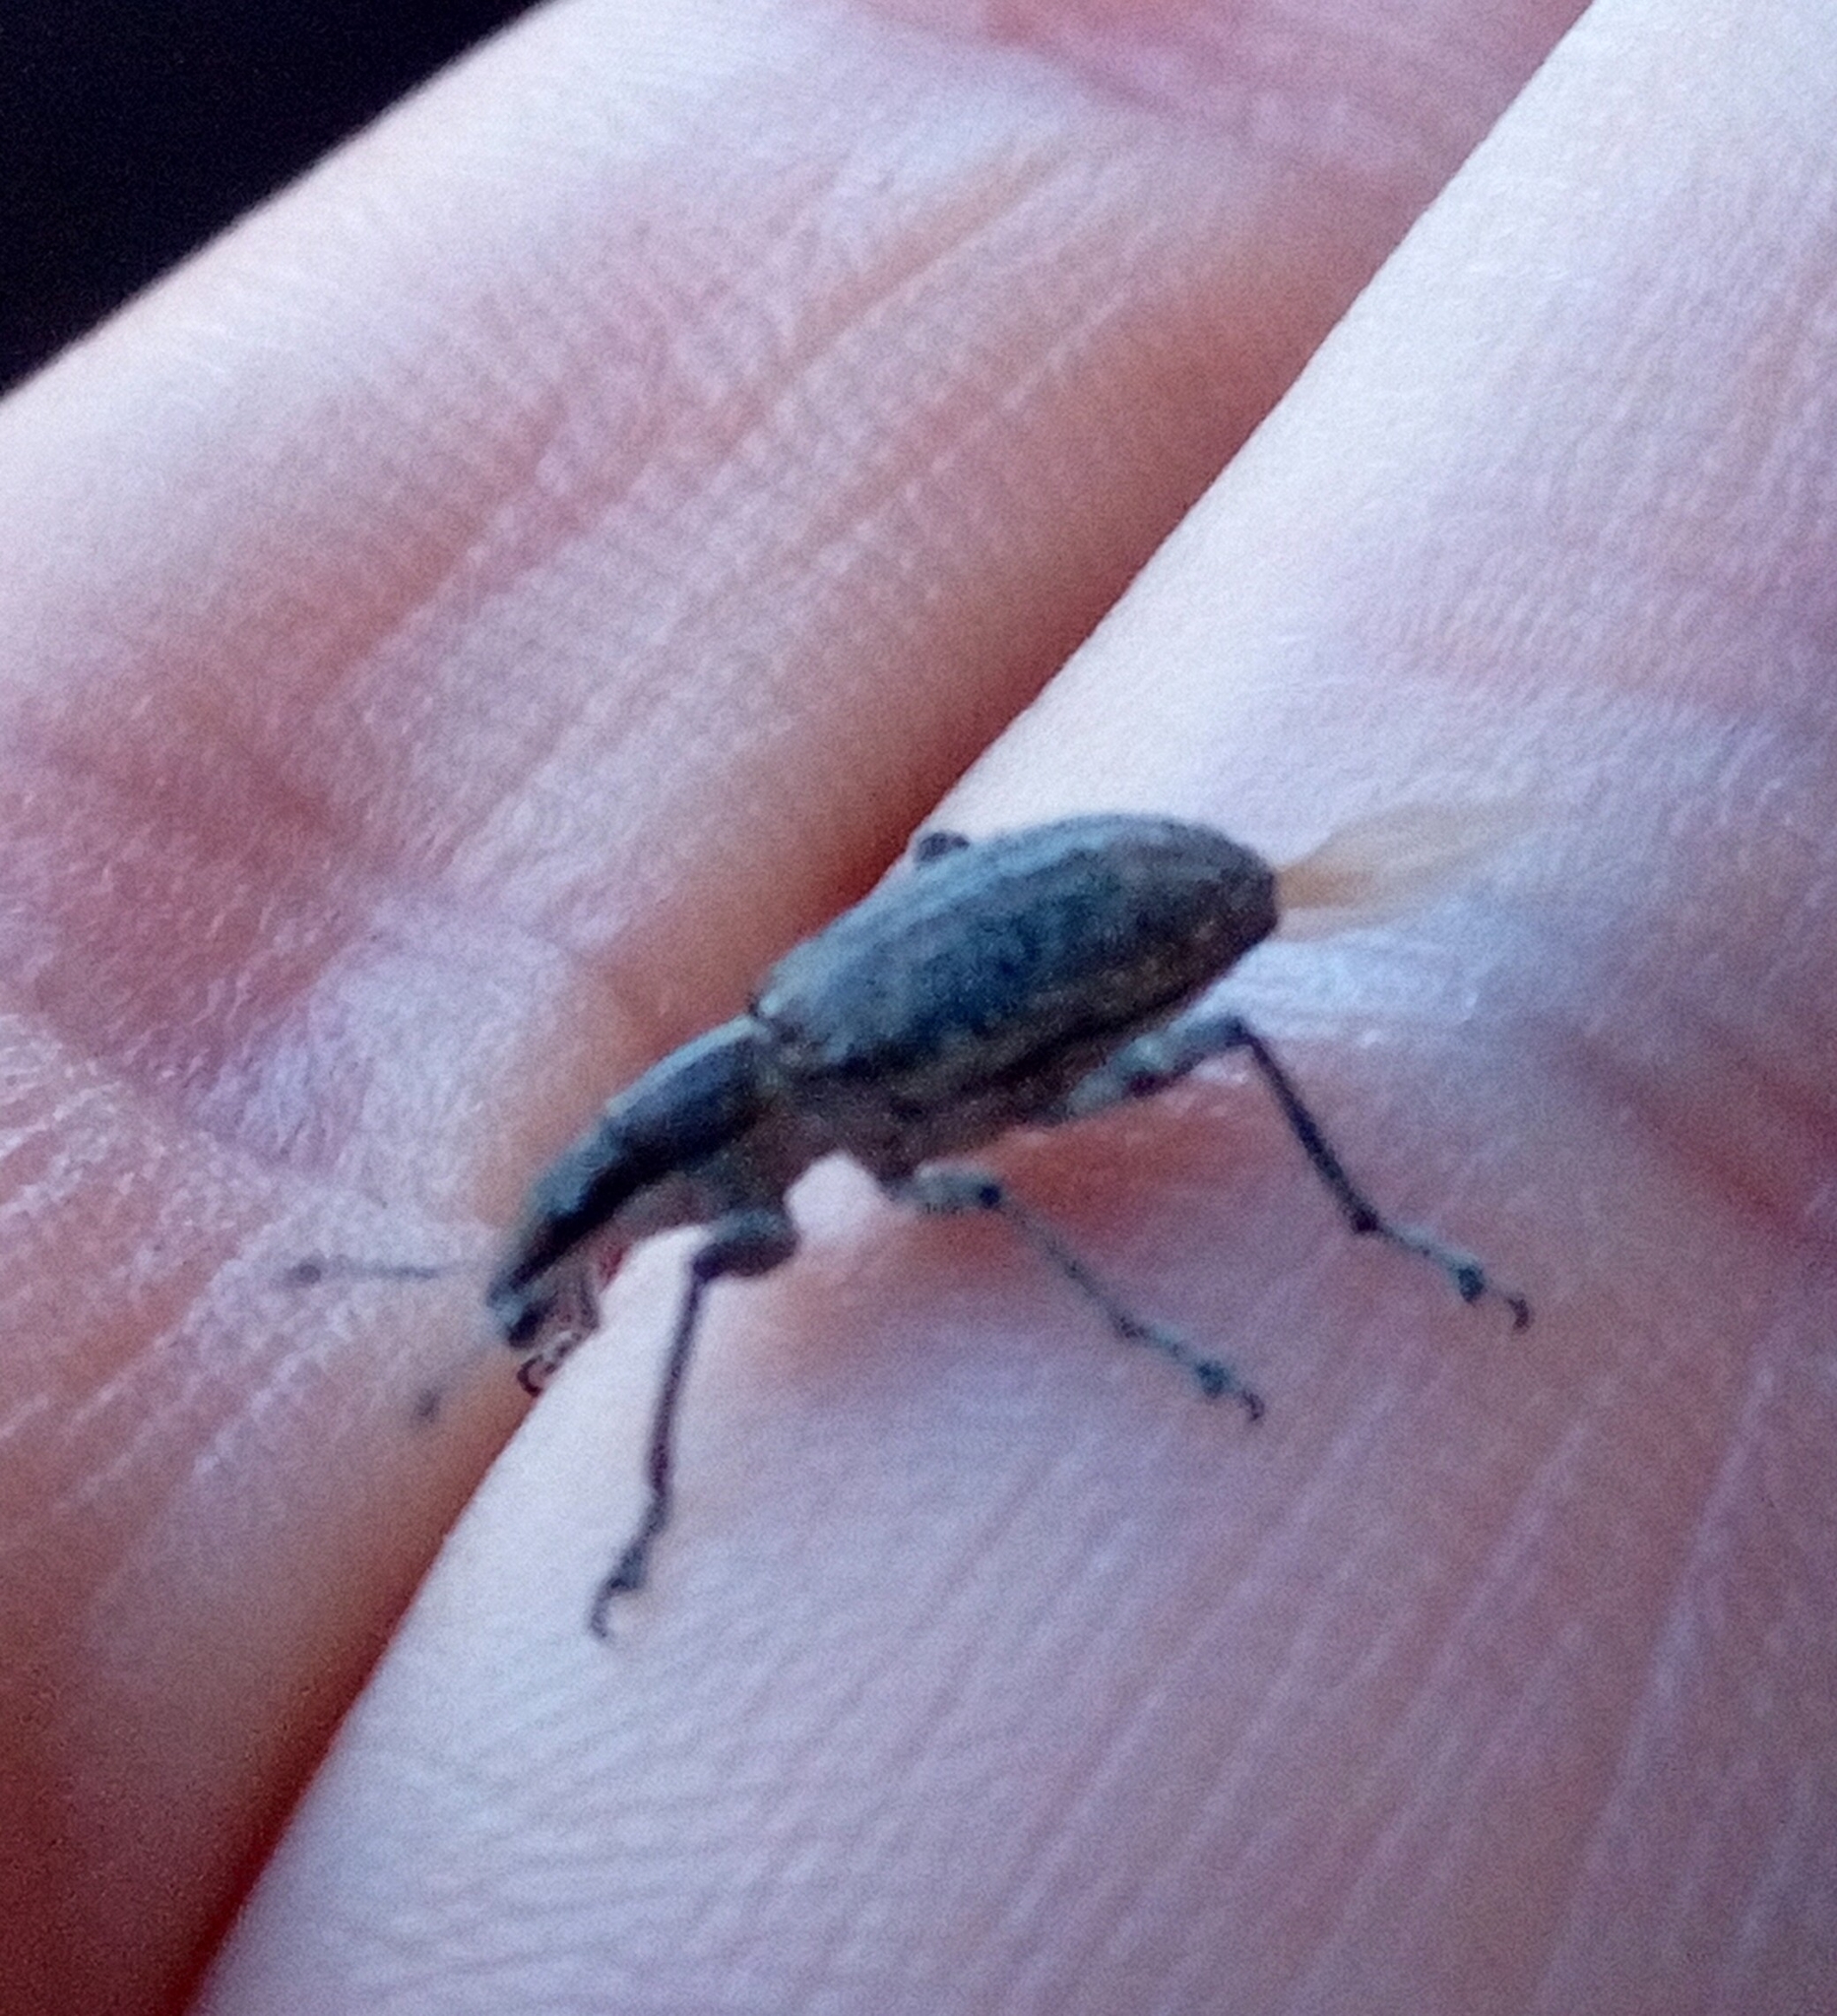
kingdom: Animalia
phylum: Arthropoda
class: Insecta
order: Coleoptera
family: Curculionidae
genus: Charagmus
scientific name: Charagmus gressorius
